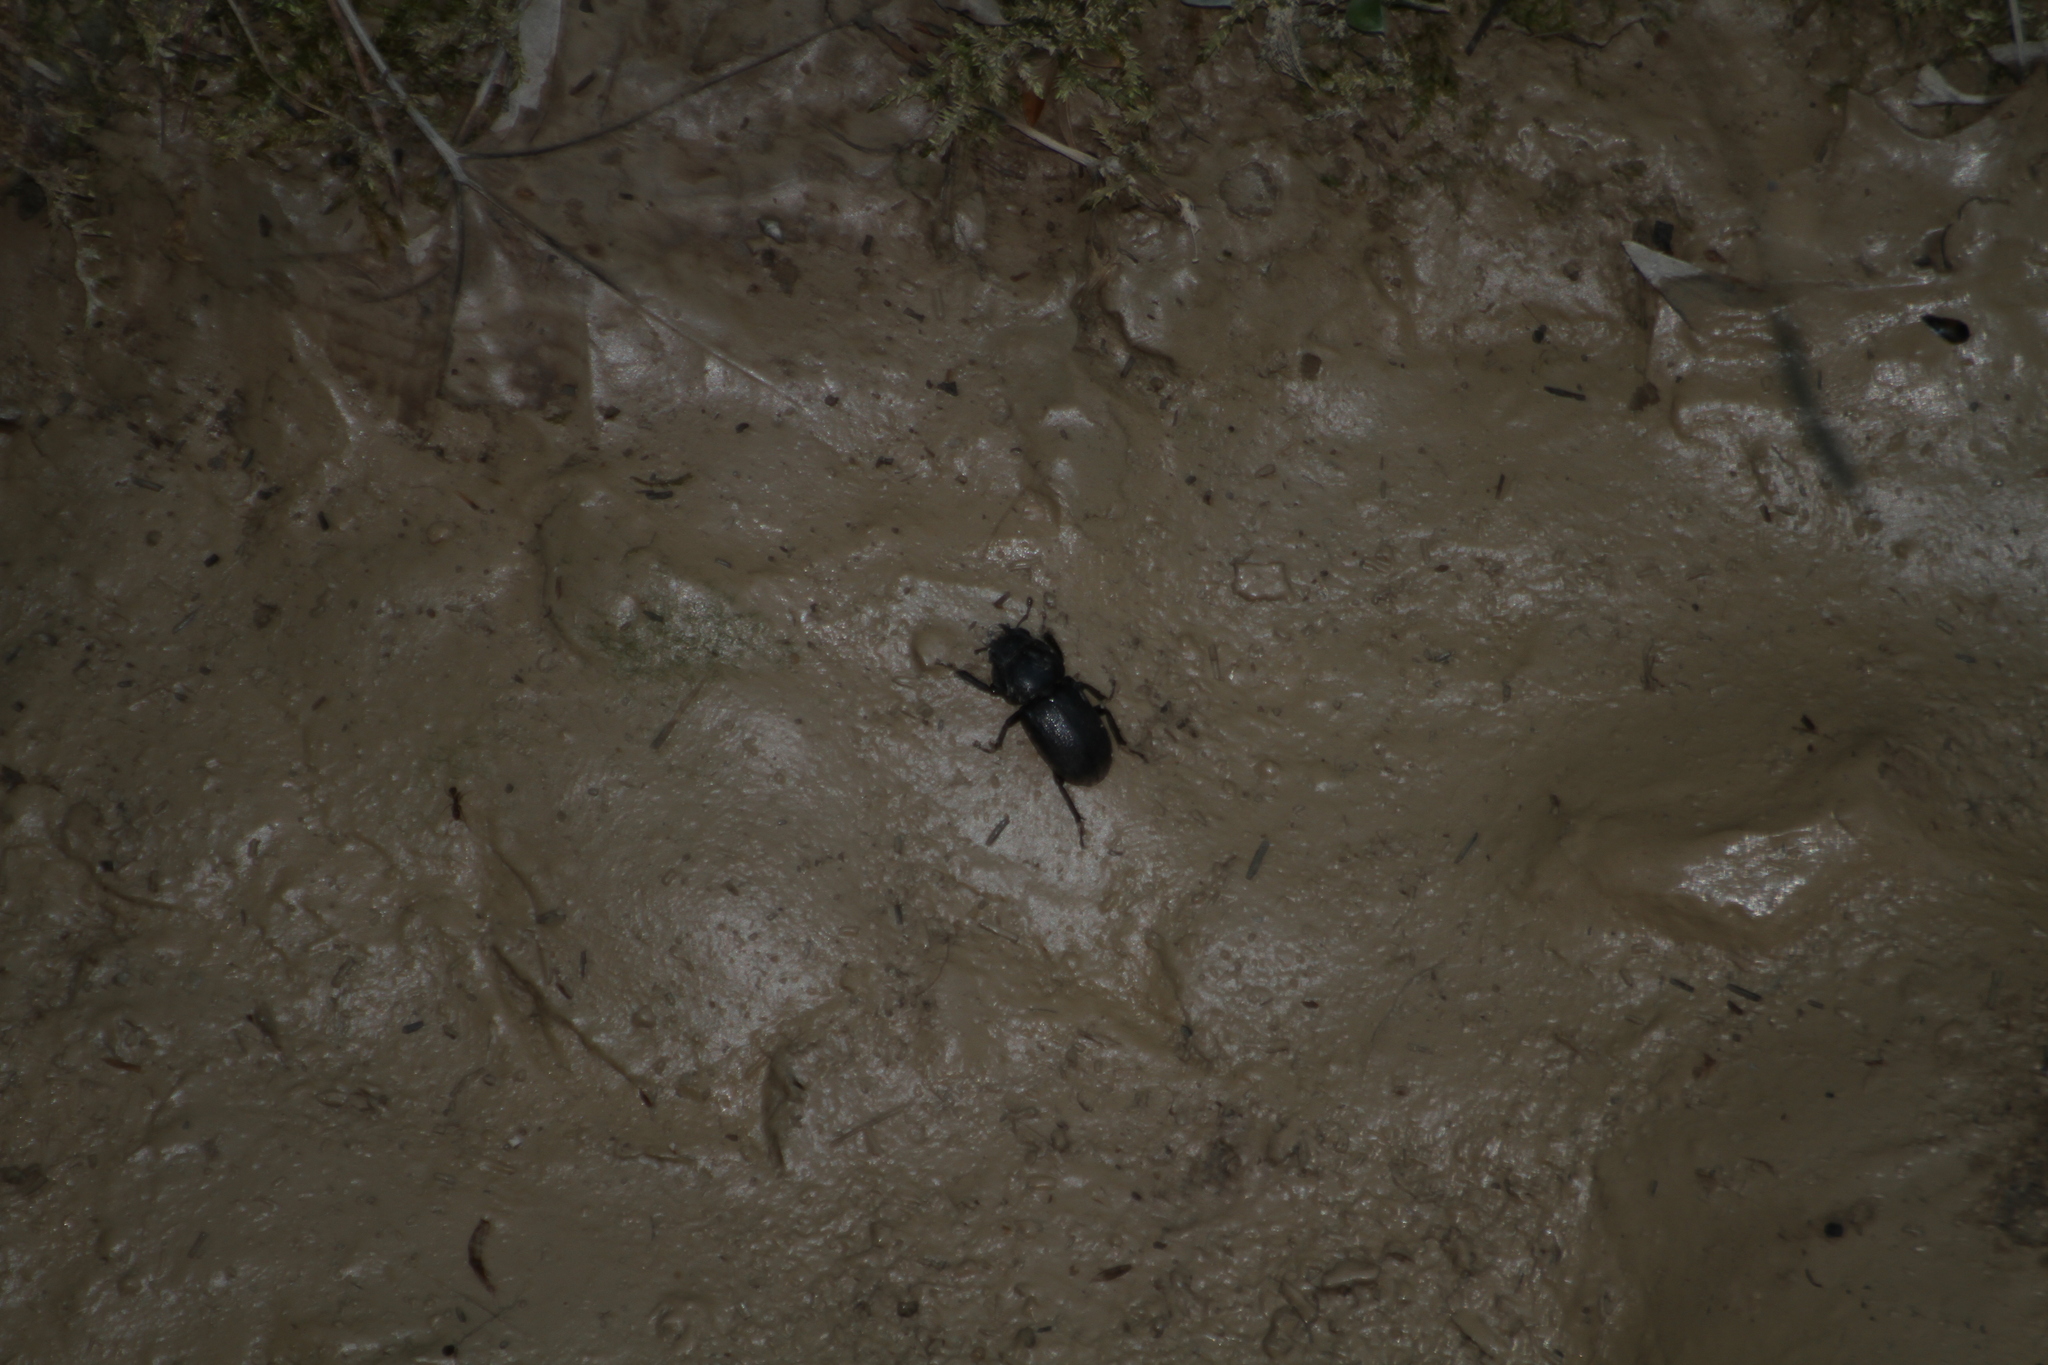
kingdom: Animalia
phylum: Arthropoda
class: Insecta
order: Coleoptera
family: Lucanidae
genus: Dorcus
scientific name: Dorcus parallelipipedus
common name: Lesser stag beetle
